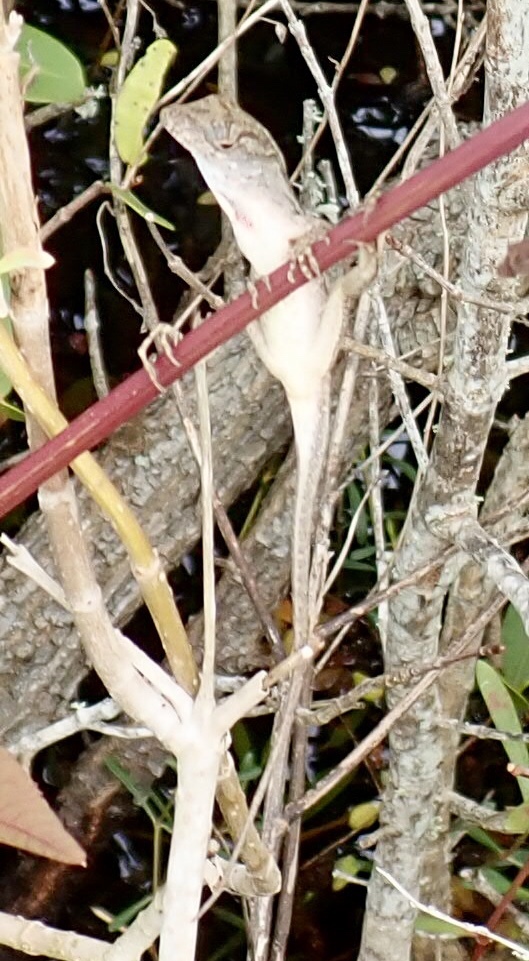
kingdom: Animalia
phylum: Chordata
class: Squamata
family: Dactyloidae
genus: Anolis
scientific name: Anolis sagrei
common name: Brown anole
